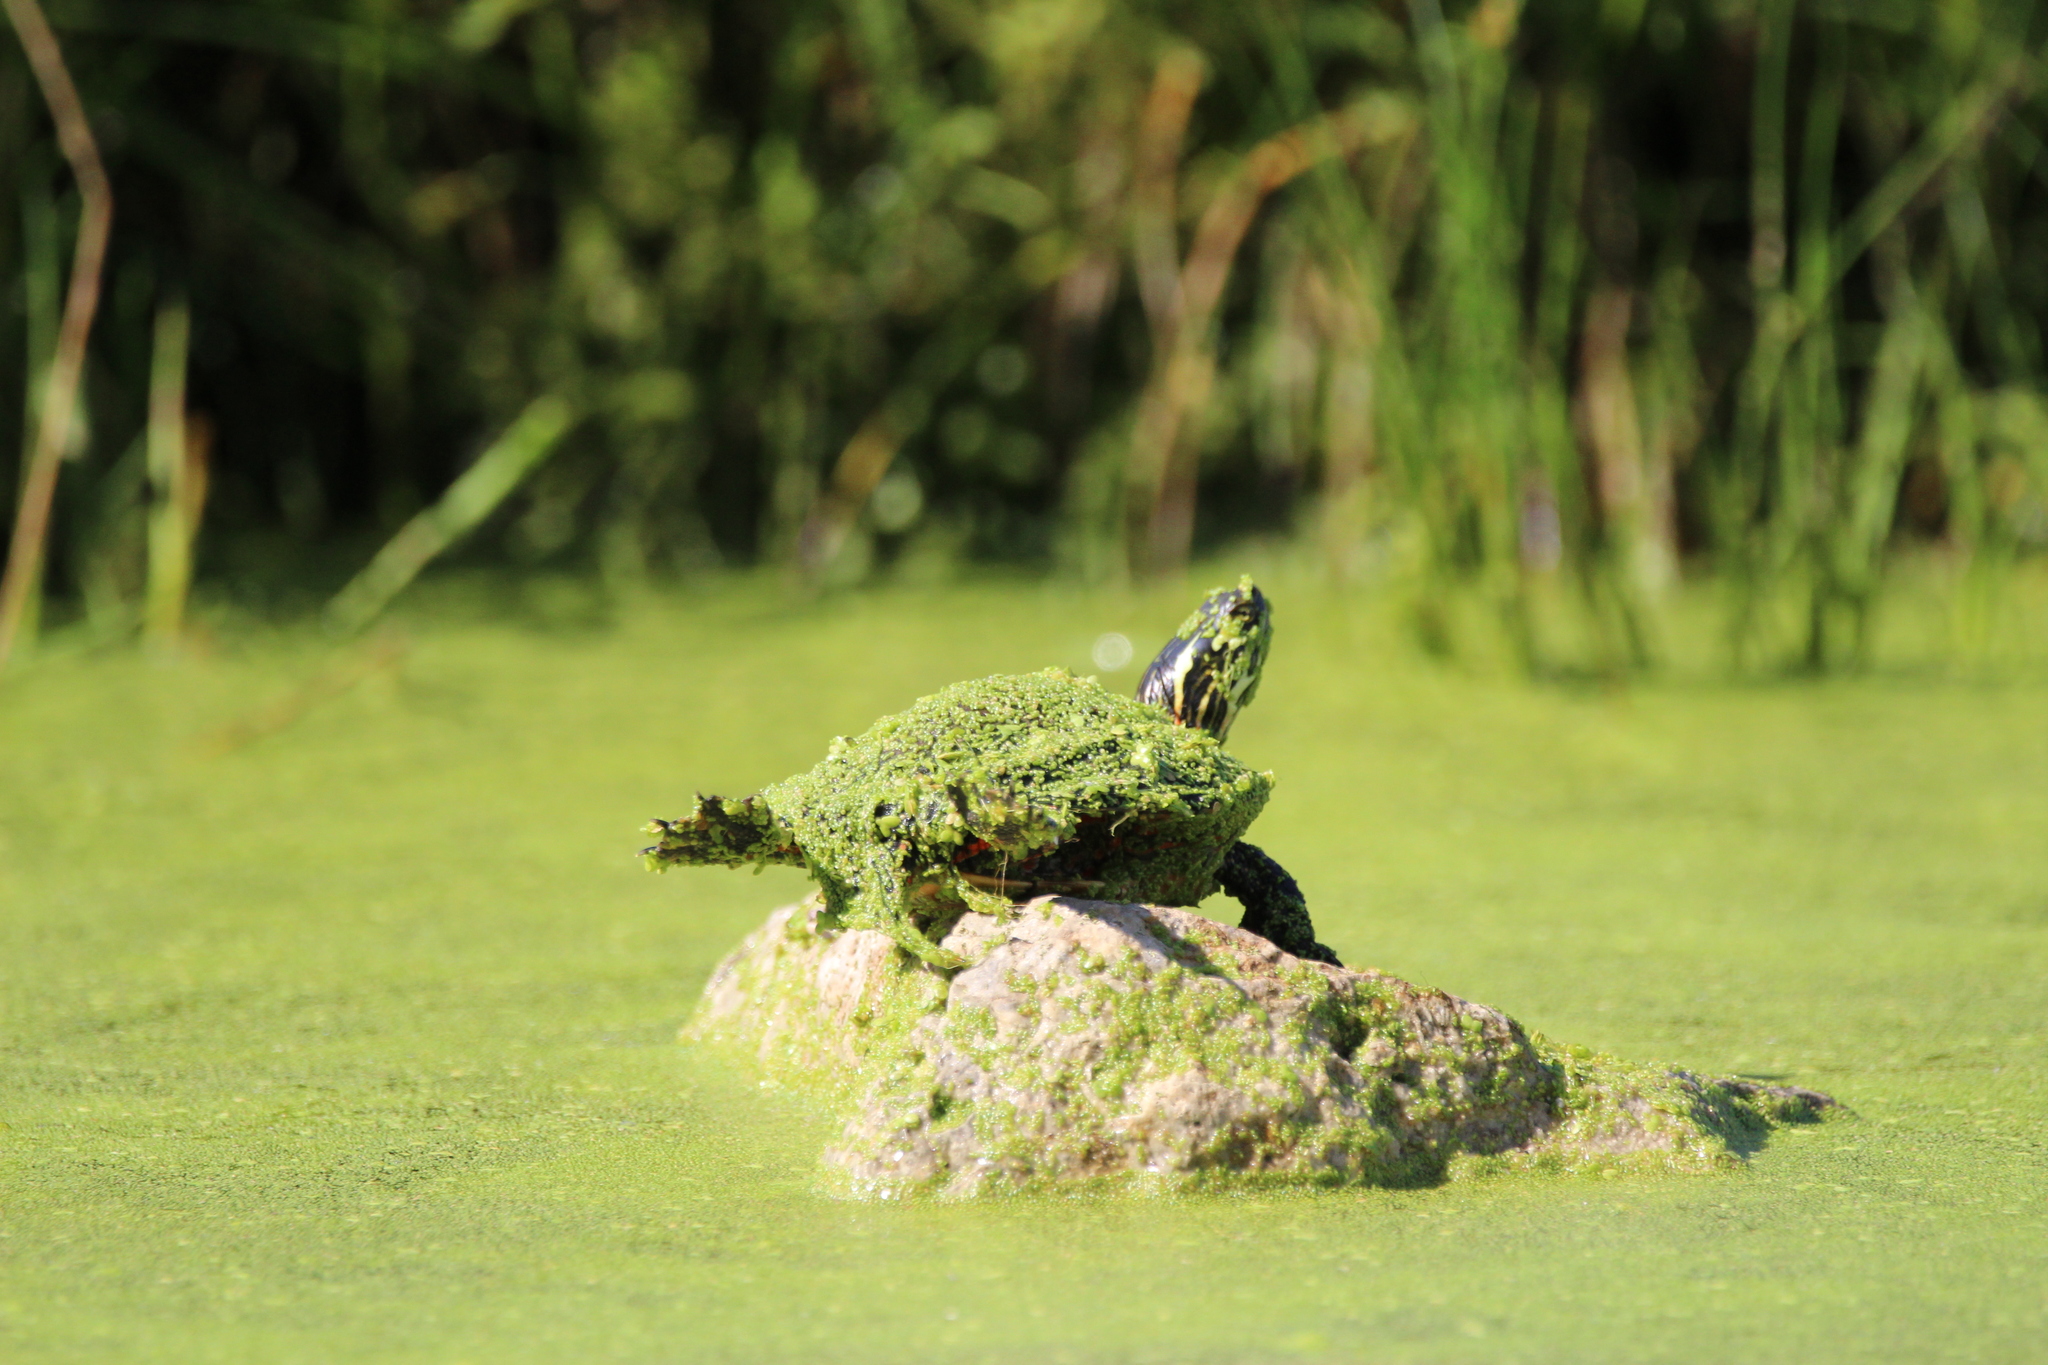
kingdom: Animalia
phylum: Chordata
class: Testudines
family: Emydidae
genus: Chrysemys
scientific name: Chrysemys picta
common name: Painted turtle
